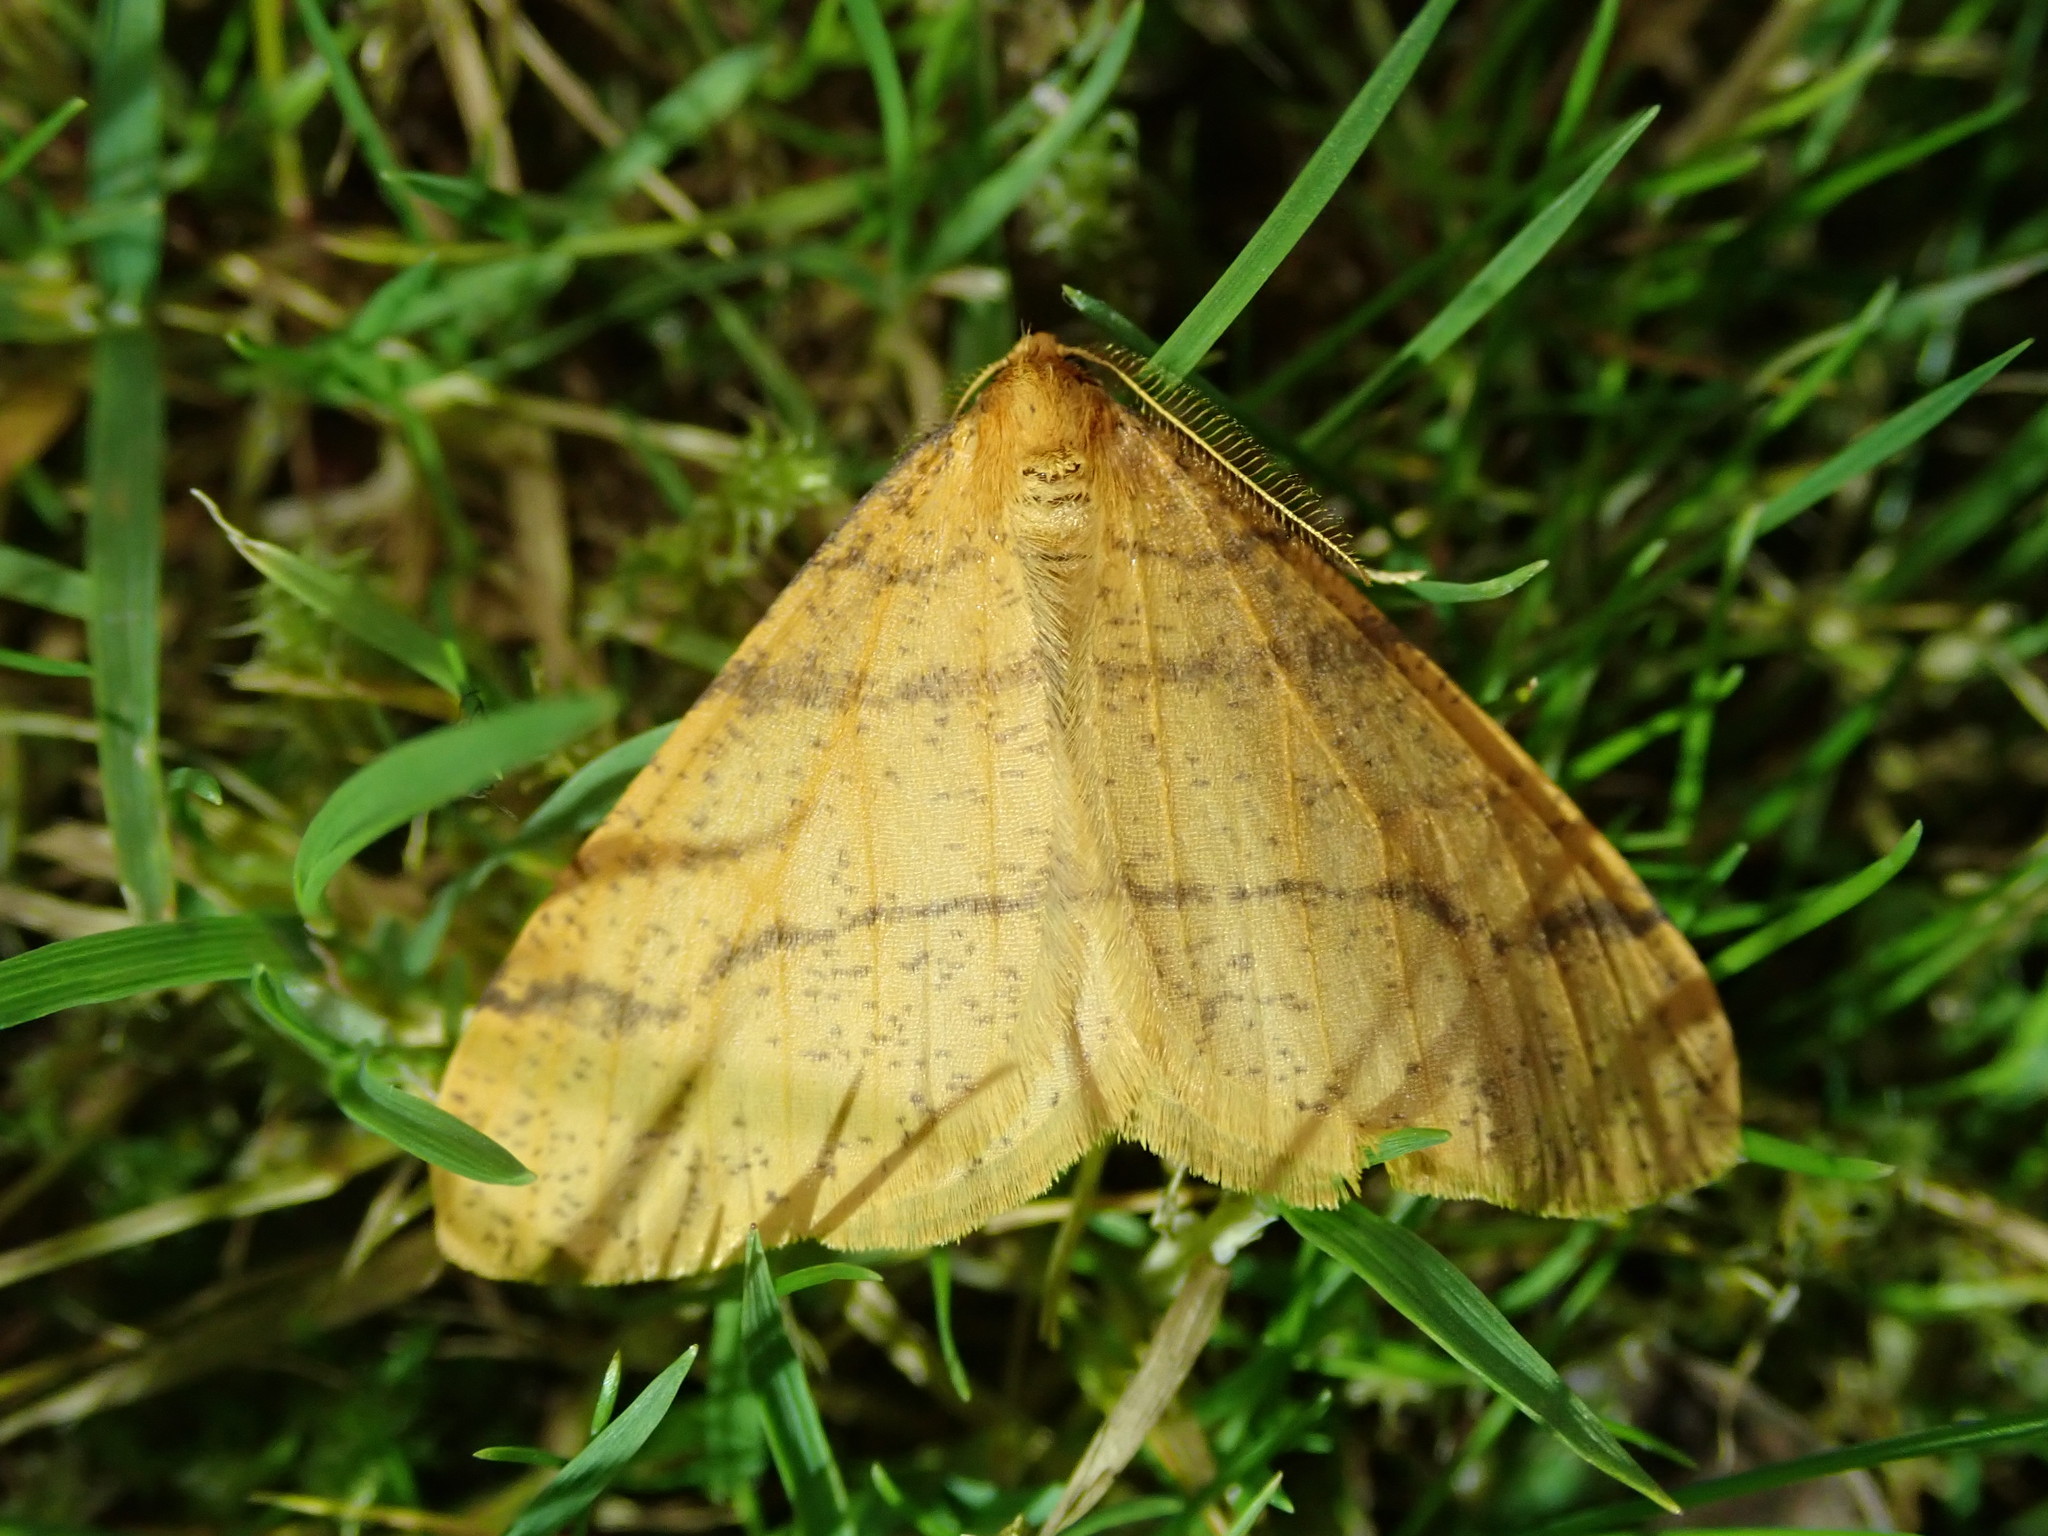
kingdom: Animalia
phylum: Arthropoda
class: Insecta
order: Lepidoptera
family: Geometridae
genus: Agriopis
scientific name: Agriopis aurantiaria
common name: Scarce umber
